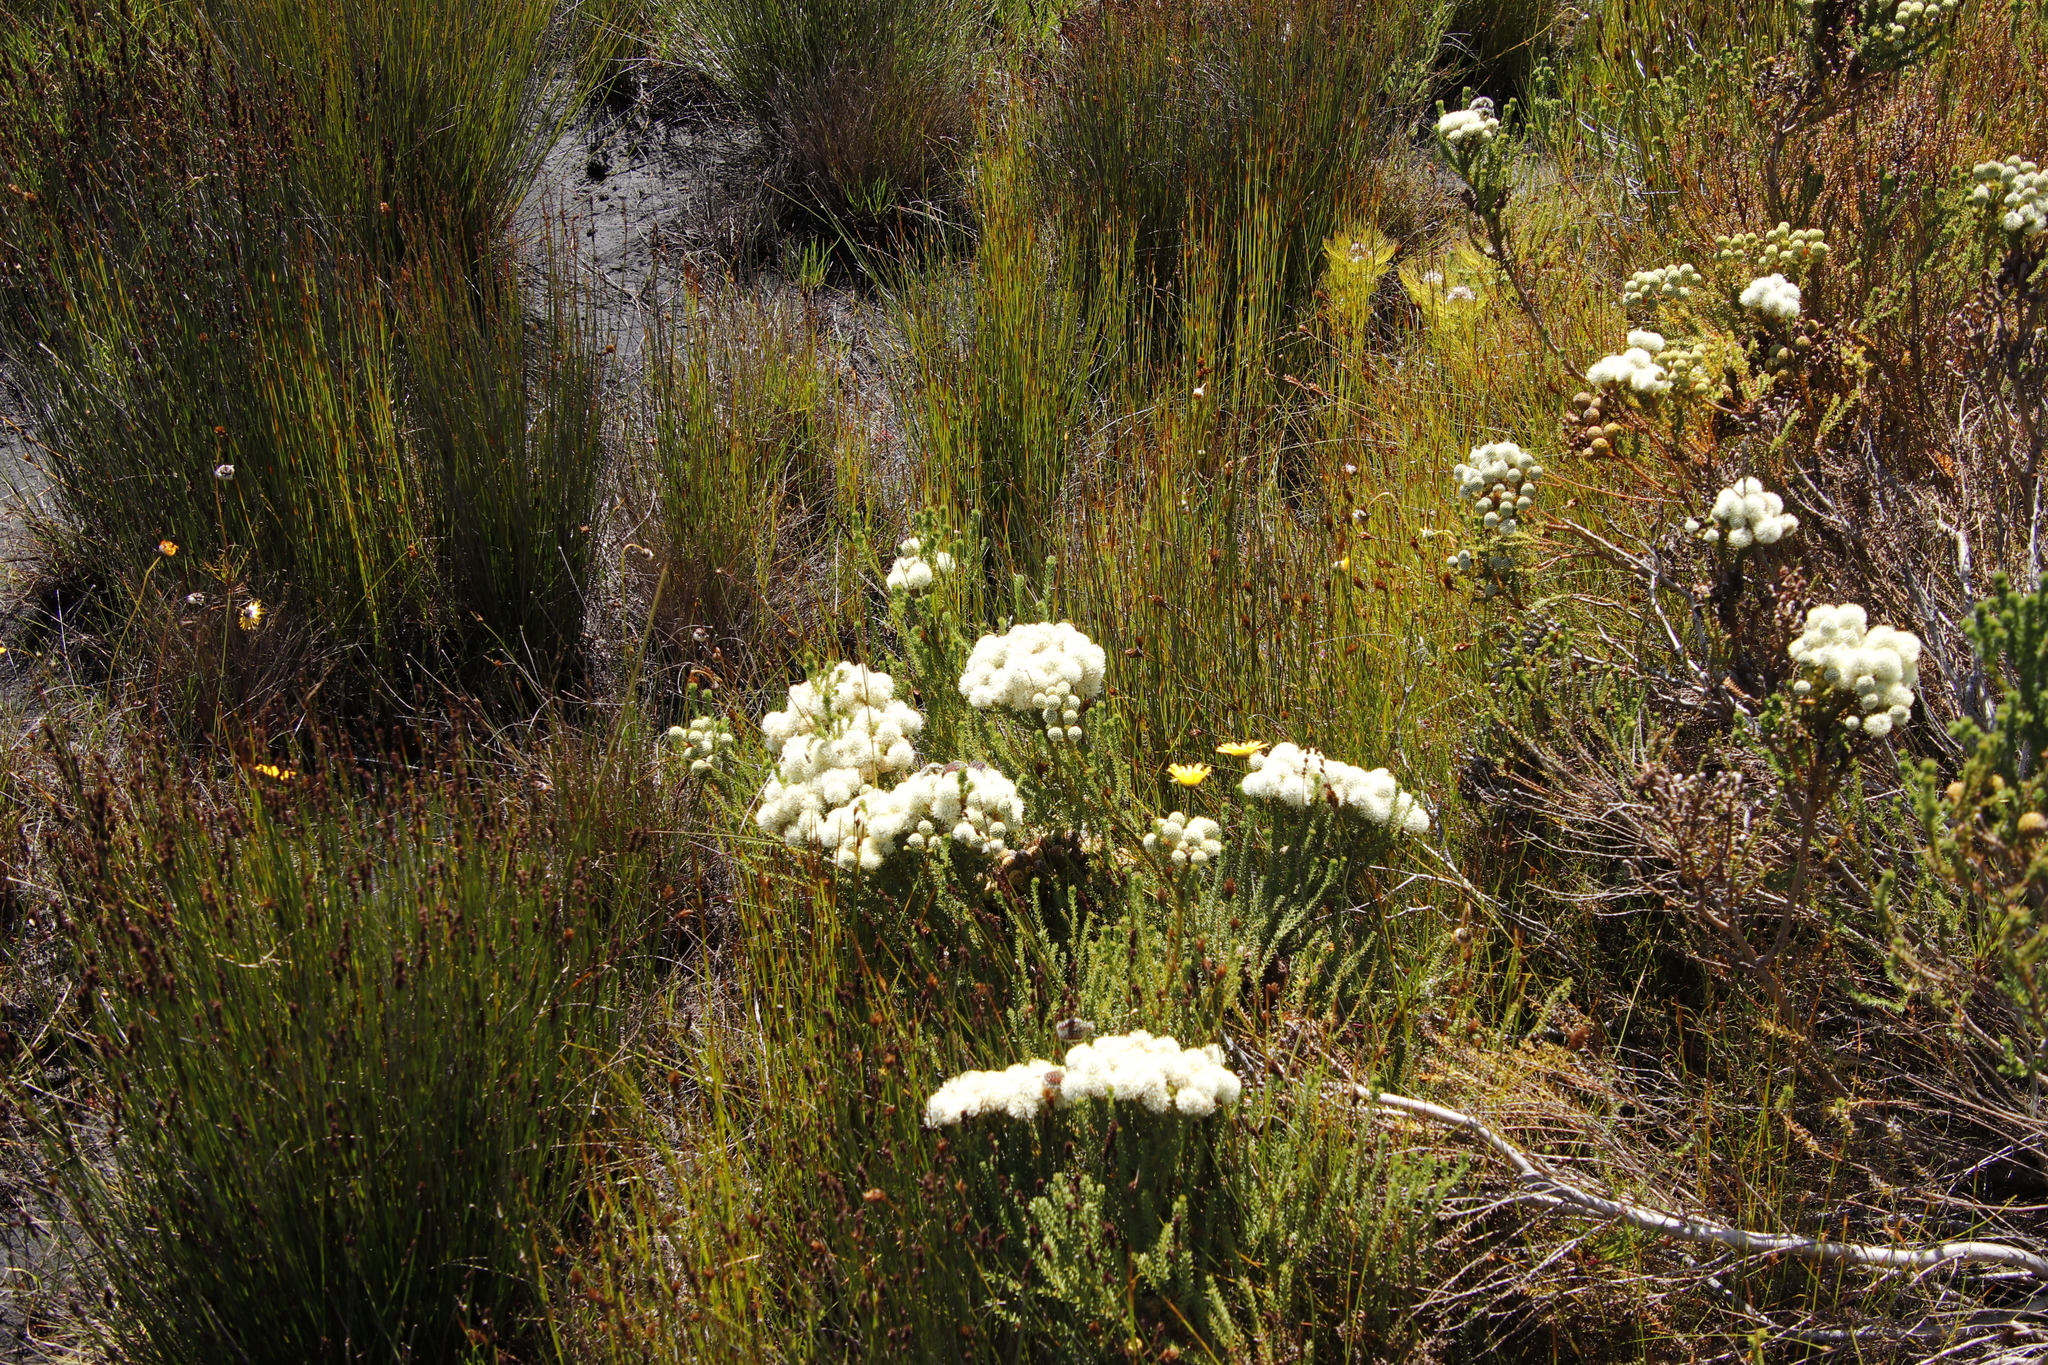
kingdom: Plantae
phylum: Tracheophyta
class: Magnoliopsida
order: Bruniales
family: Bruniaceae
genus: Berzelia
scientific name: Berzelia abrotanoides
